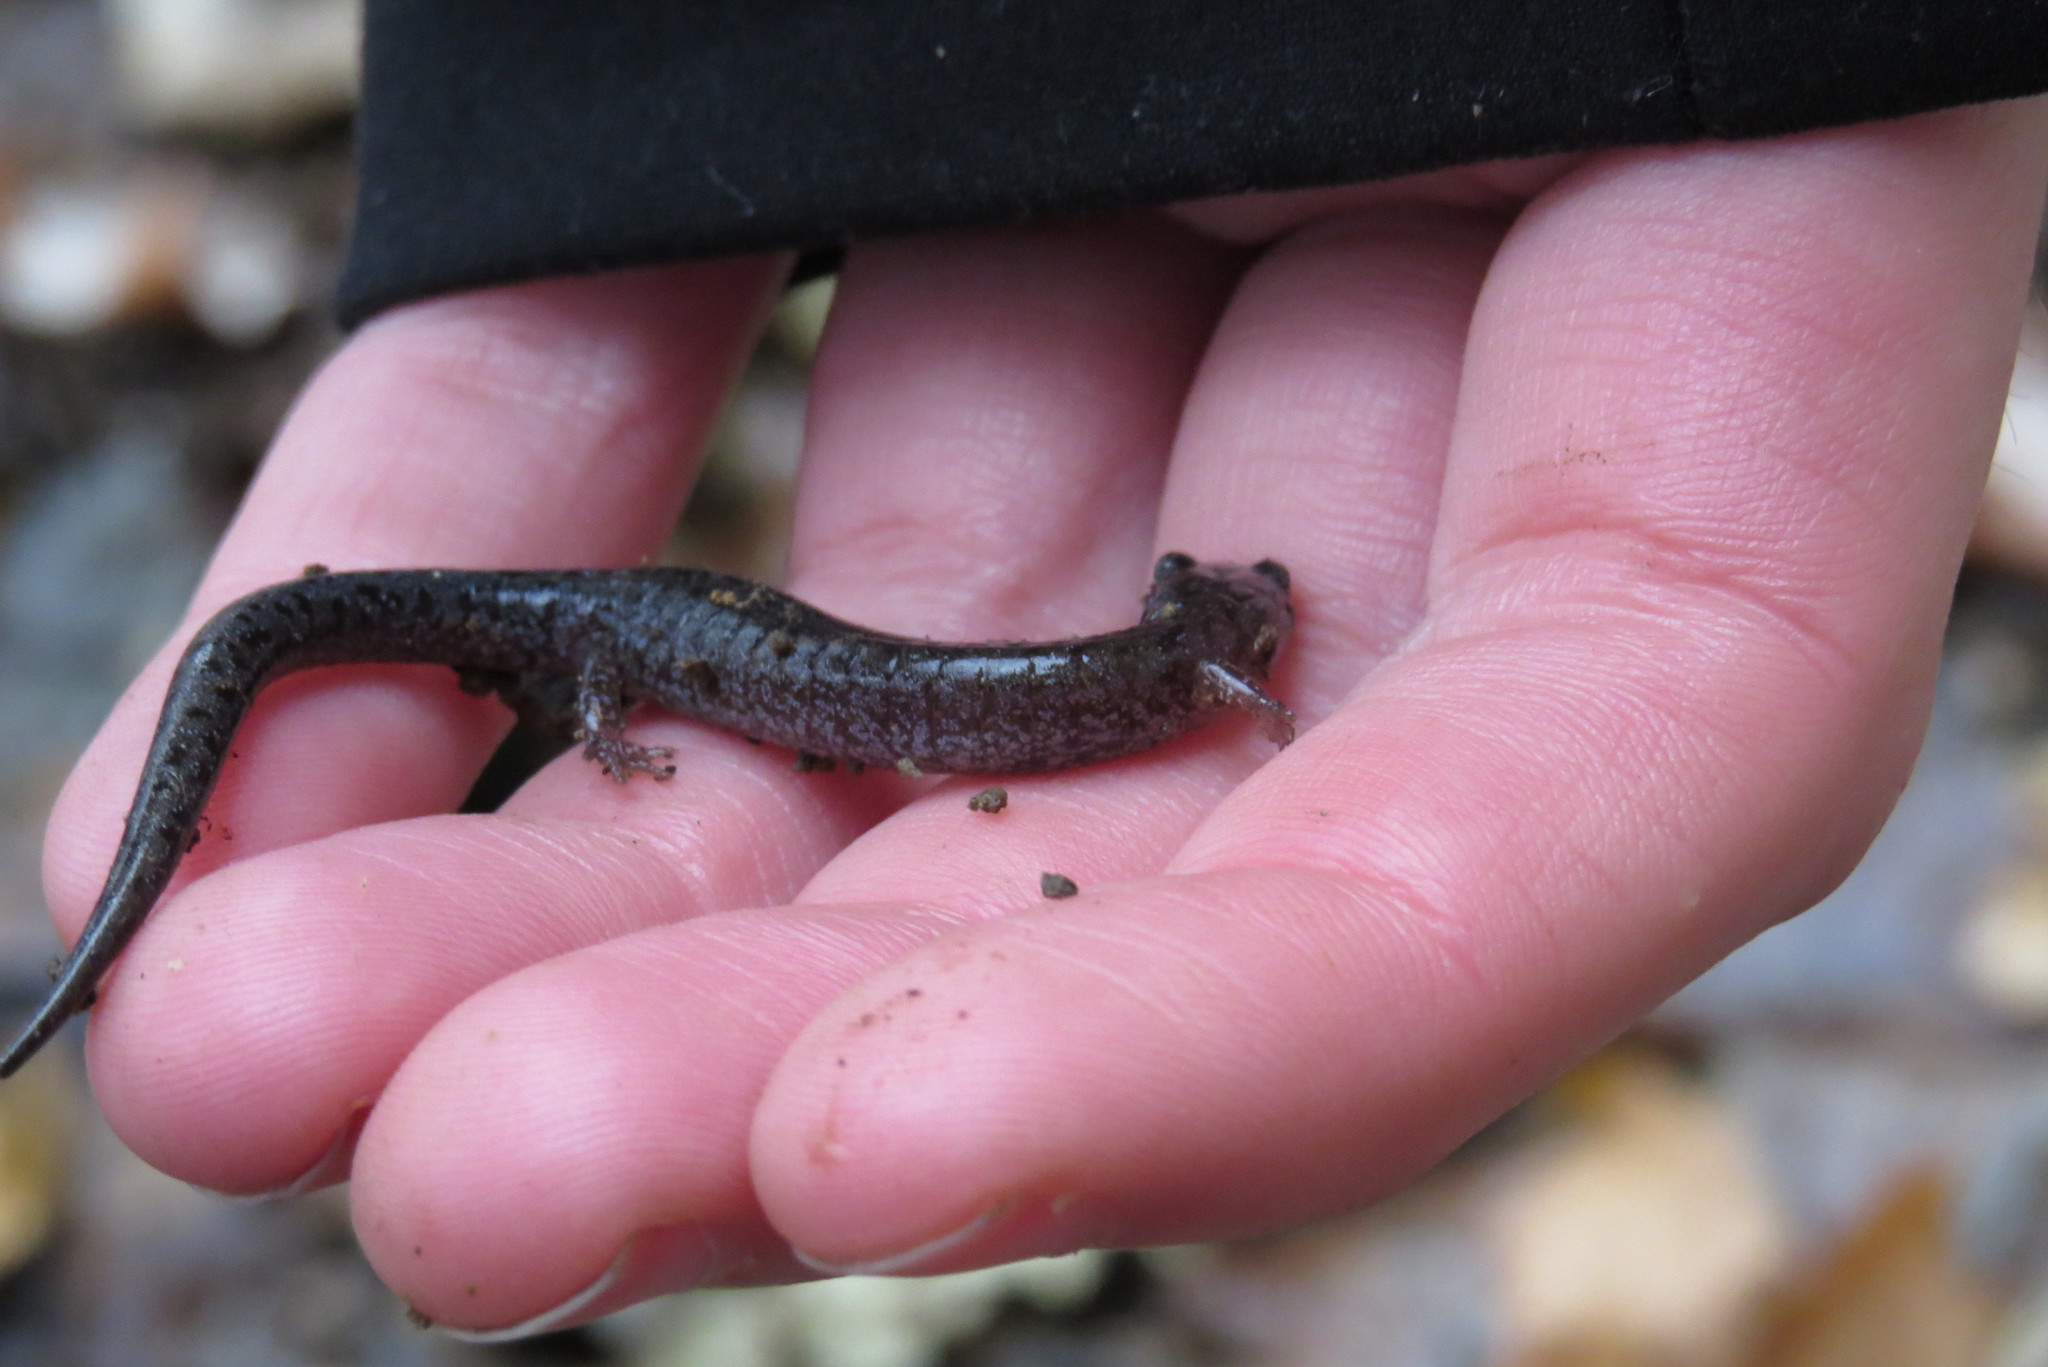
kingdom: Animalia
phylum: Chordata
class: Amphibia
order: Caudata
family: Plethodontidae
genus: Plethodon
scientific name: Plethodon dorsalis
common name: Northern zigzag salamander
